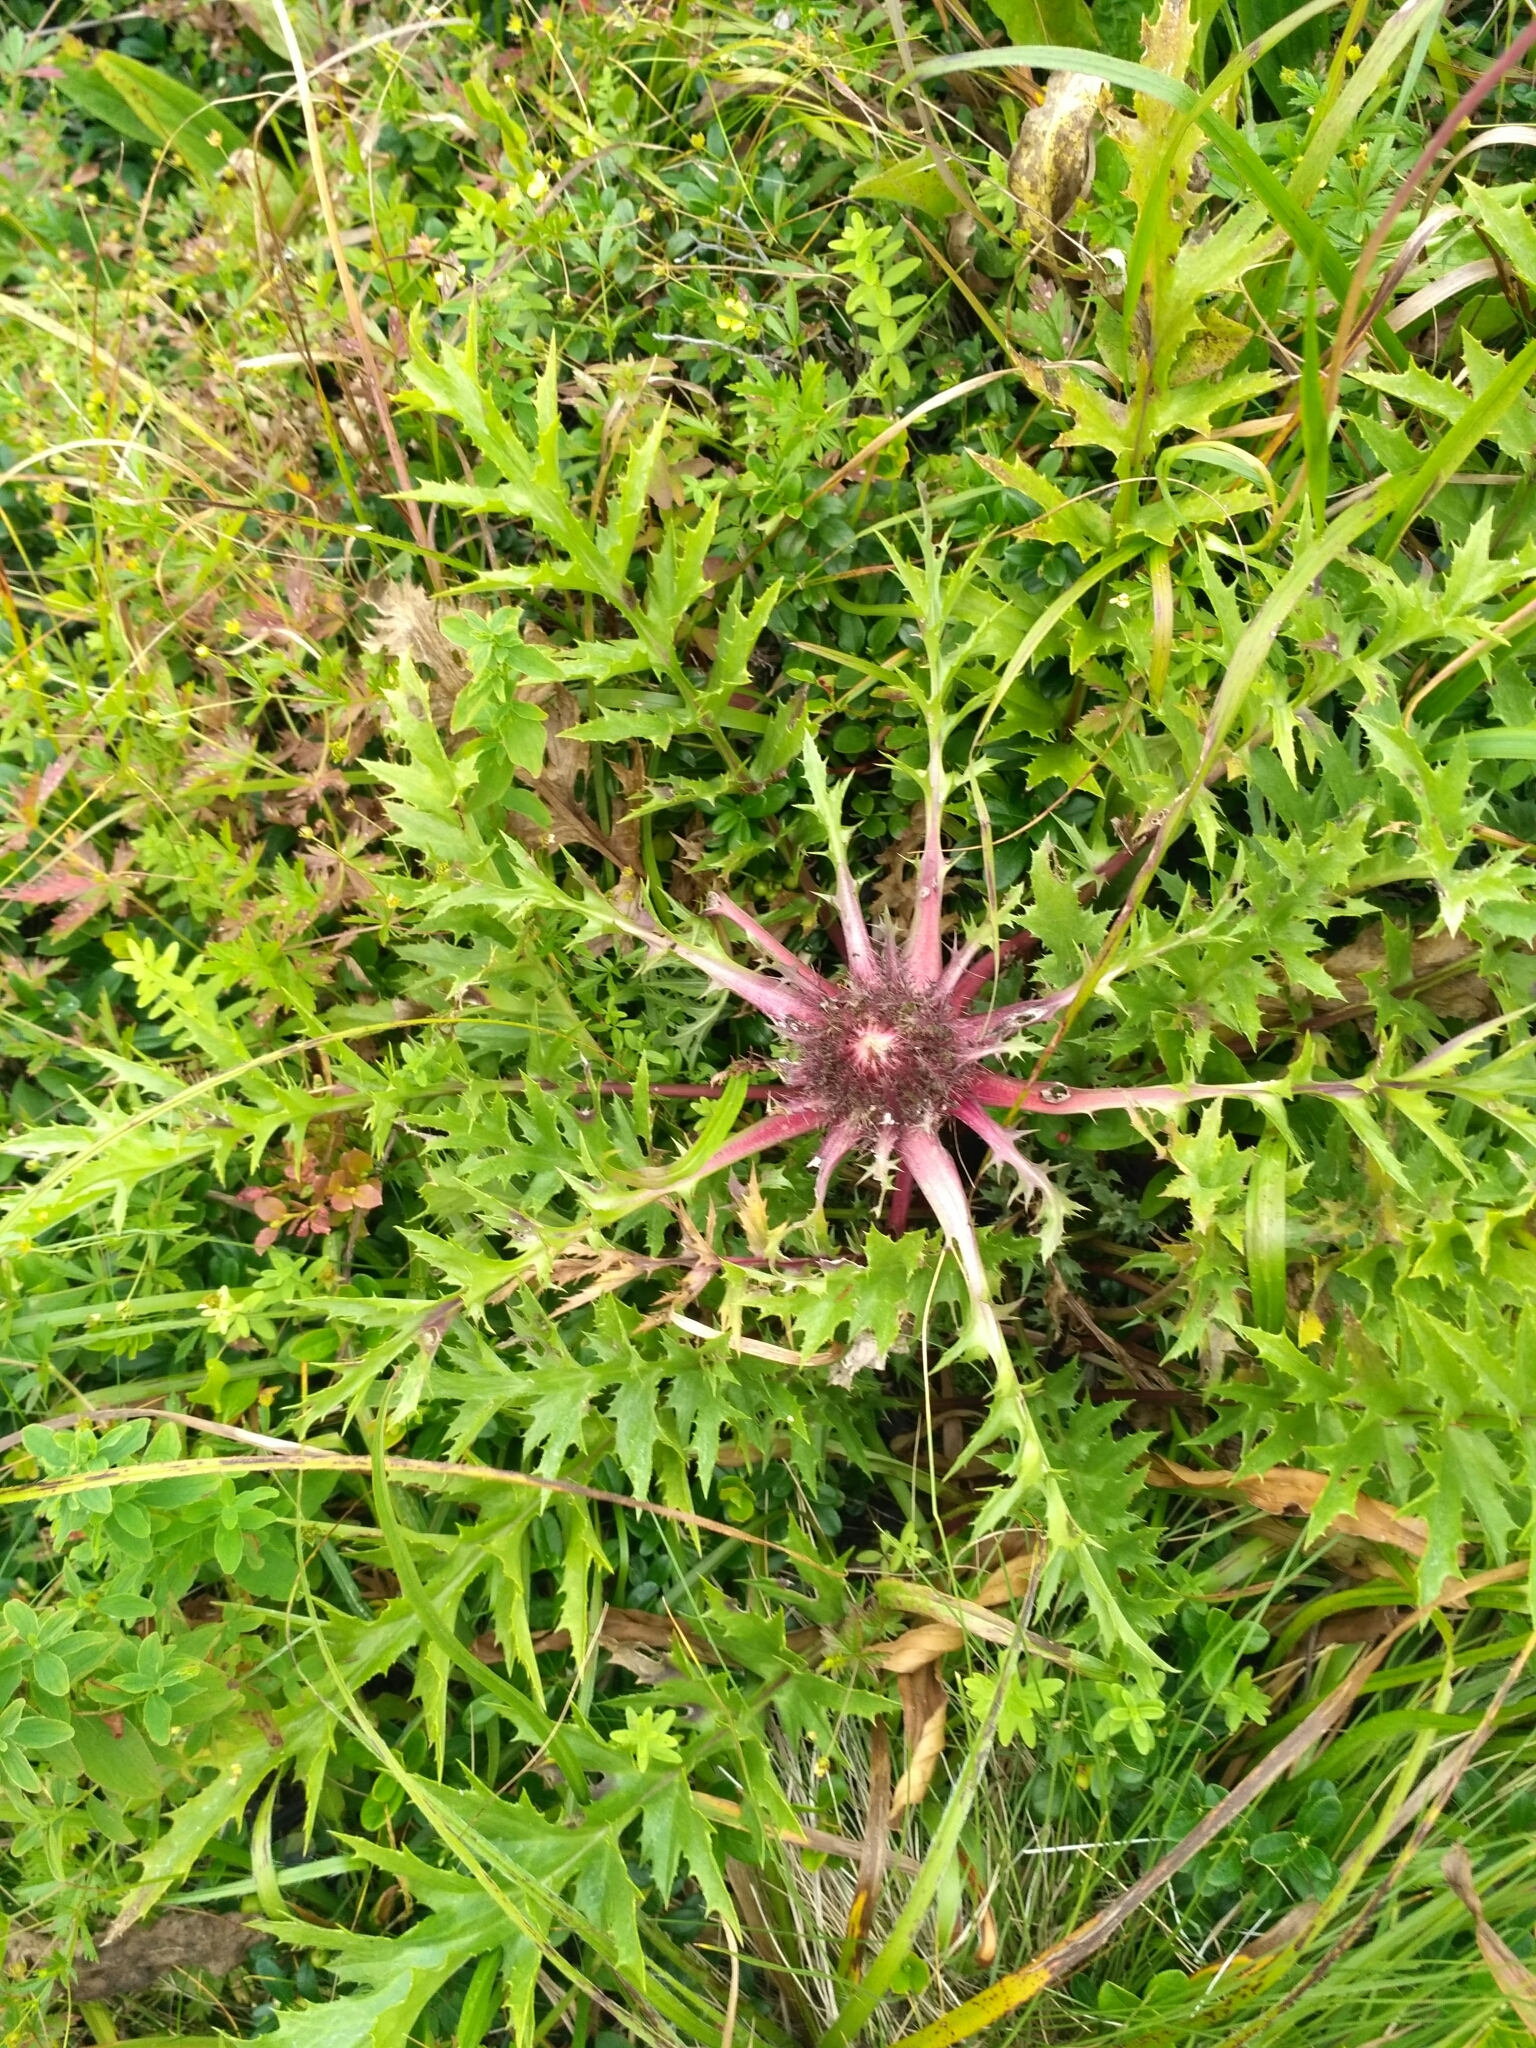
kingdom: Plantae
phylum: Tracheophyta
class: Magnoliopsida
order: Asterales
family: Asteraceae
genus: Carlina
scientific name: Carlina acaulis
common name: Stemless carline thistle
